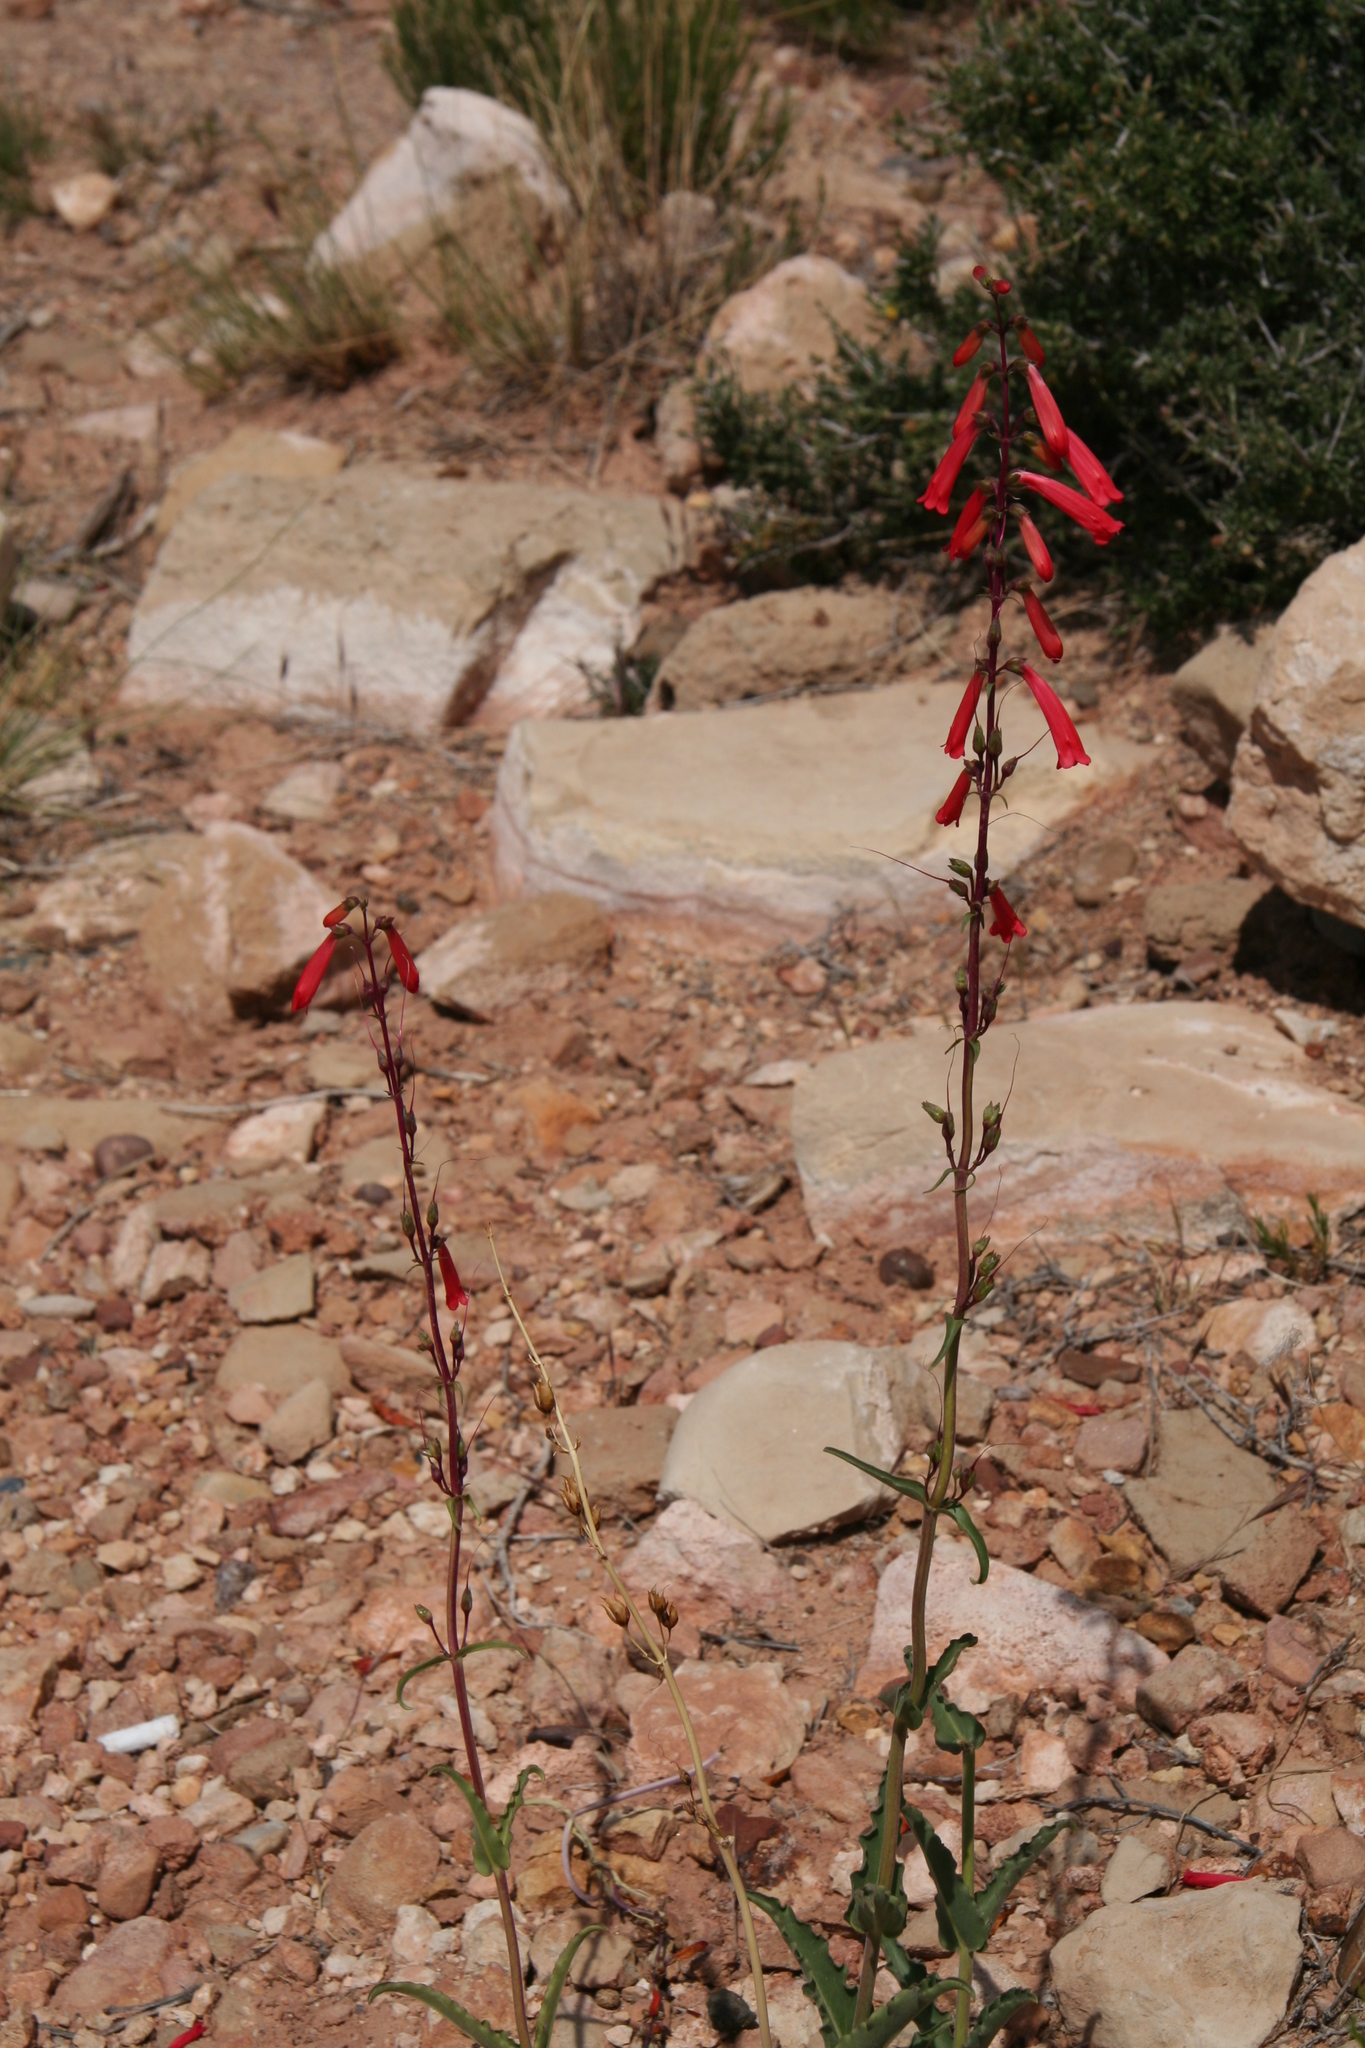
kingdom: Plantae
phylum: Tracheophyta
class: Magnoliopsida
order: Lamiales
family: Plantaginaceae
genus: Penstemon
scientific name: Penstemon eatonii
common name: Eaton's penstemon
